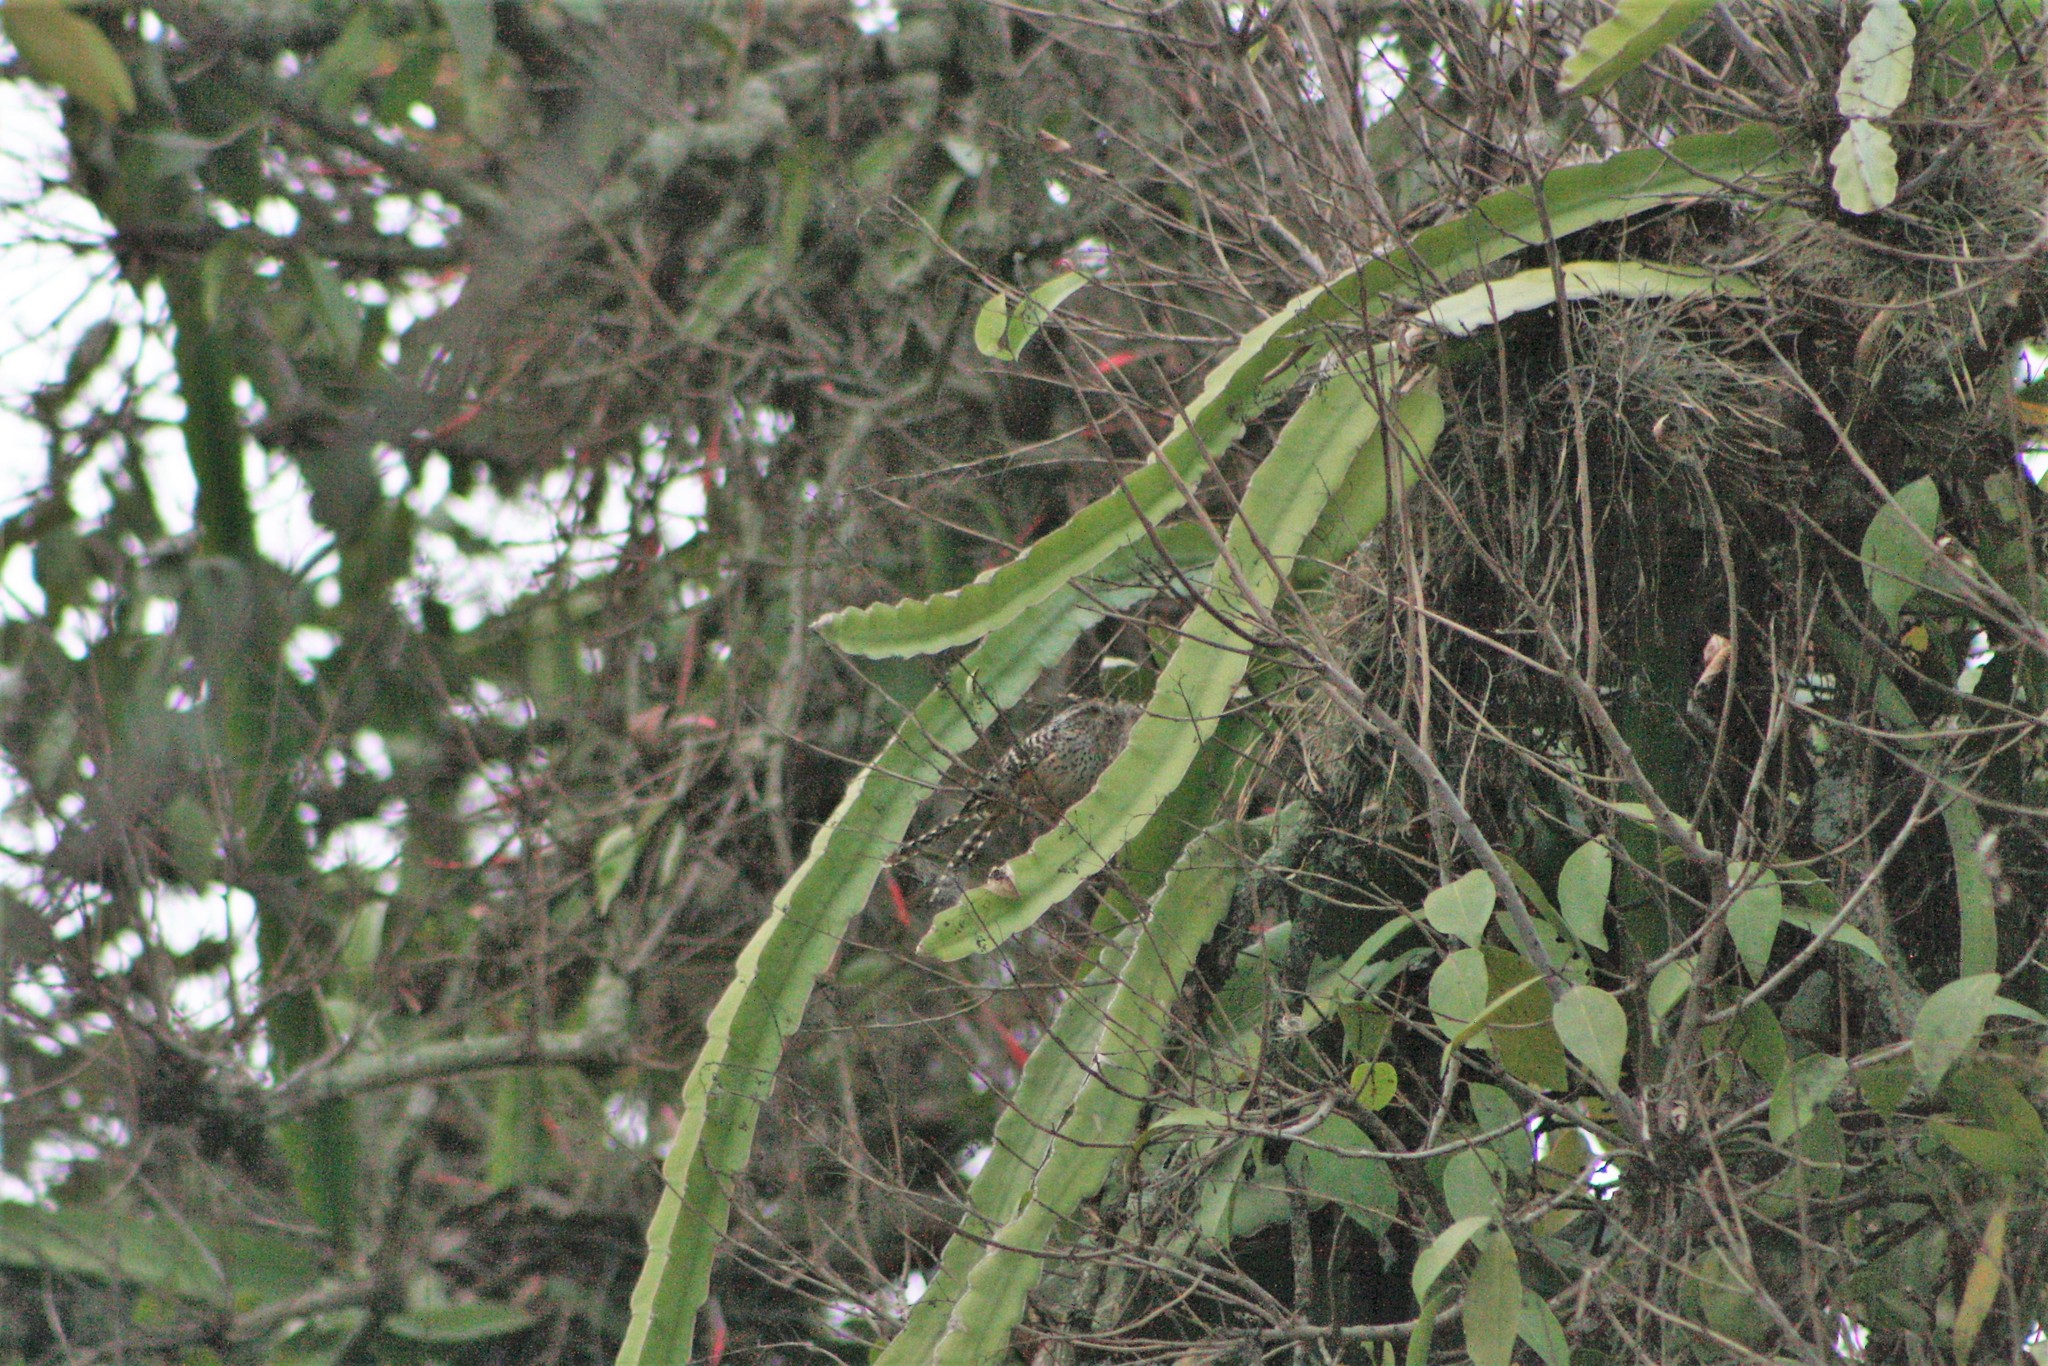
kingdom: Animalia
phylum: Chordata
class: Aves
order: Passeriformes
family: Troglodytidae
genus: Campylorhynchus
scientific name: Campylorhynchus zonatus
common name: Band-backed wren
